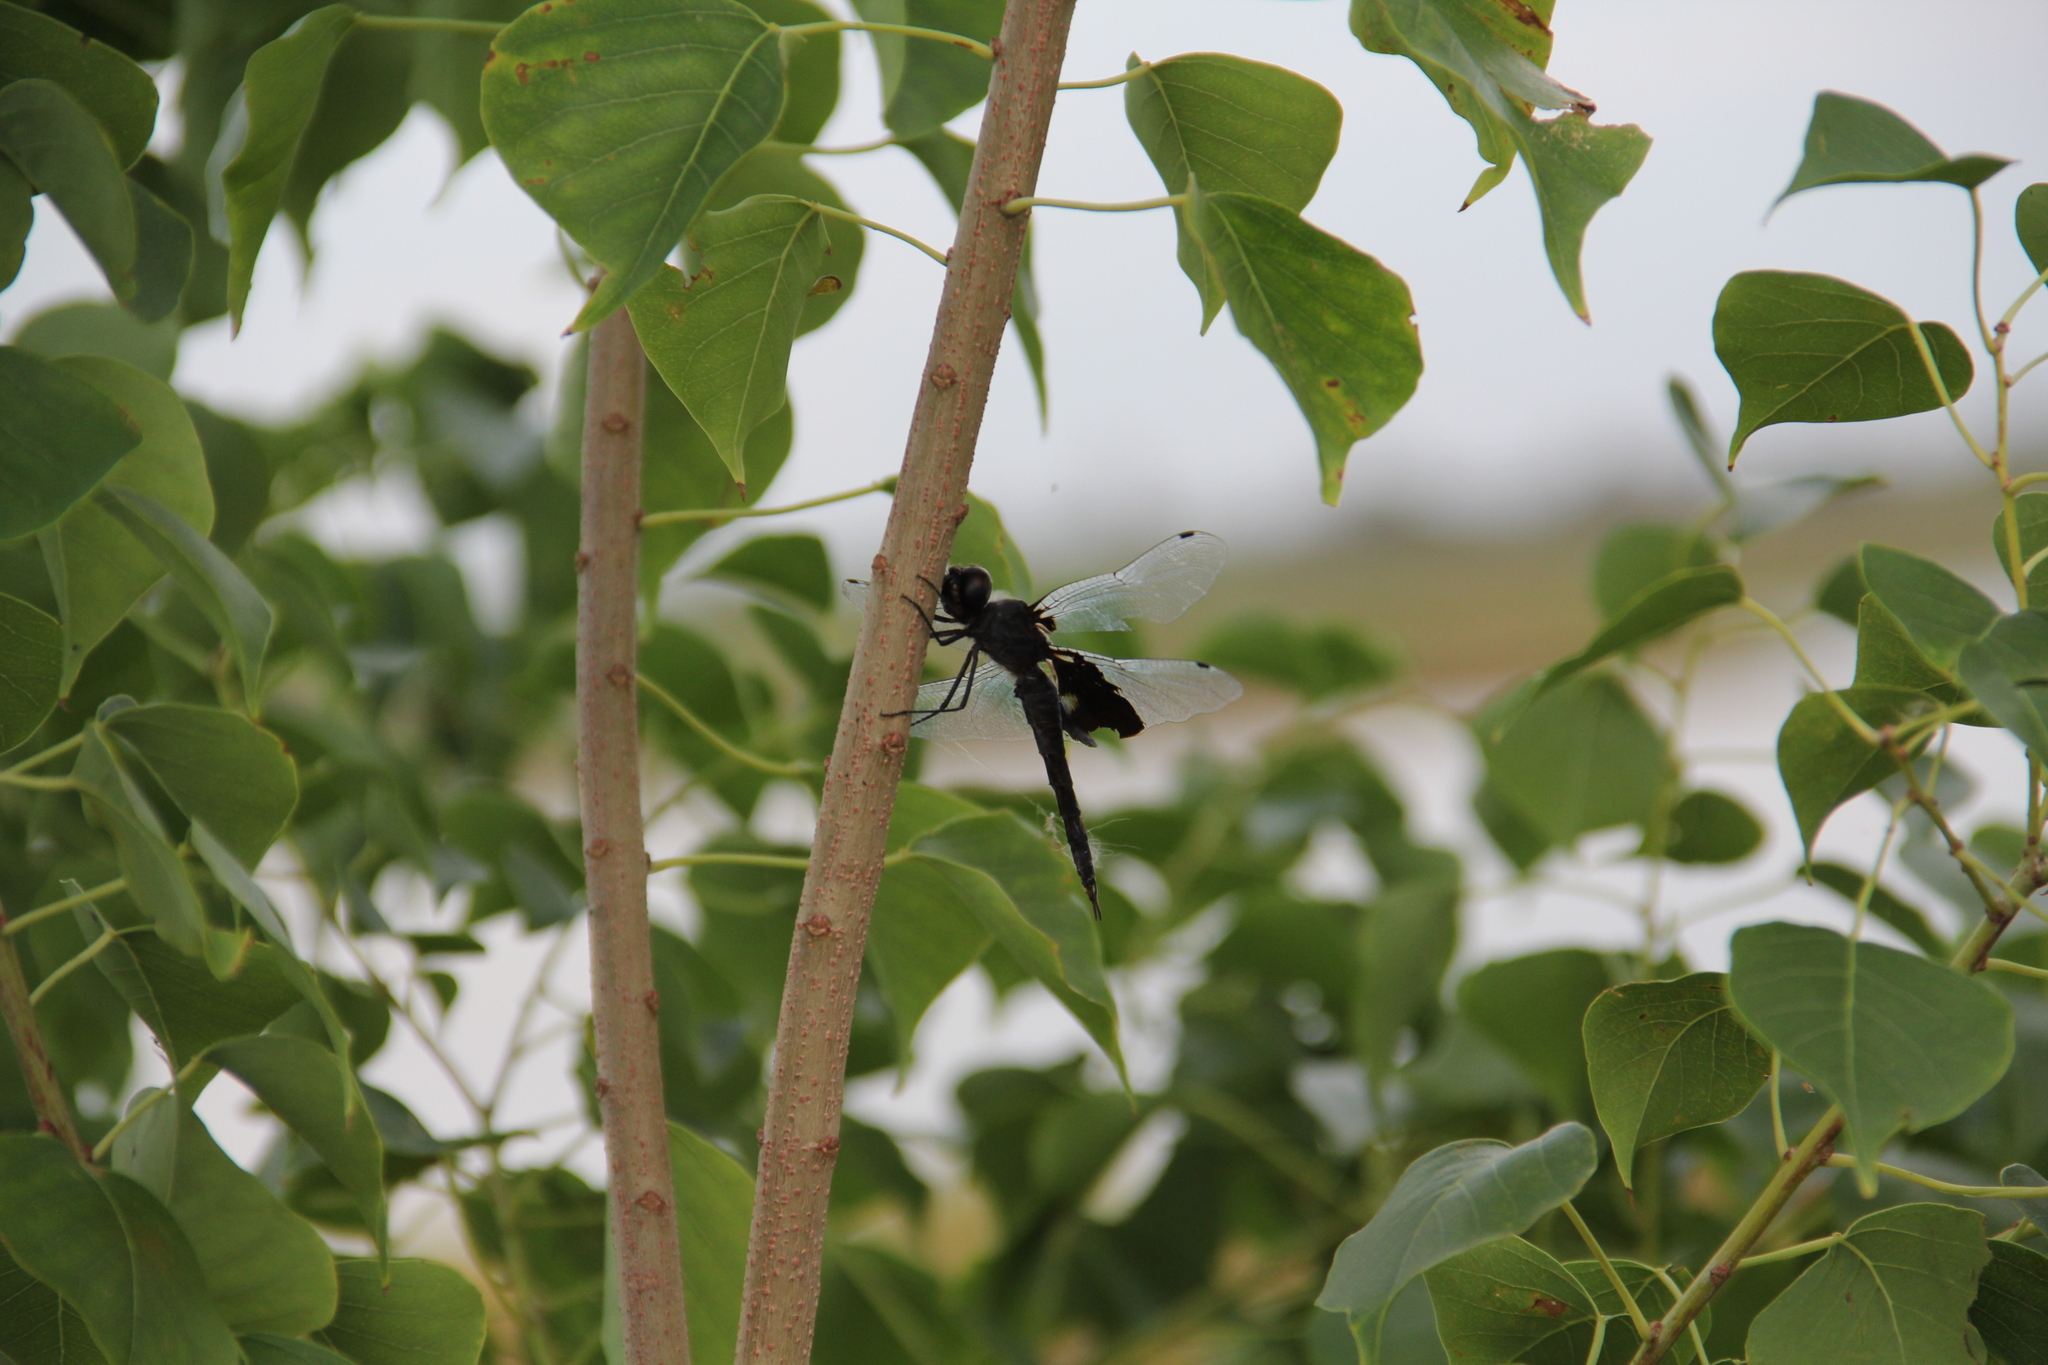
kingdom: Animalia
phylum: Arthropoda
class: Insecta
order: Odonata
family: Libellulidae
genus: Tramea
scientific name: Tramea lacerata
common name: Black saddlebags
